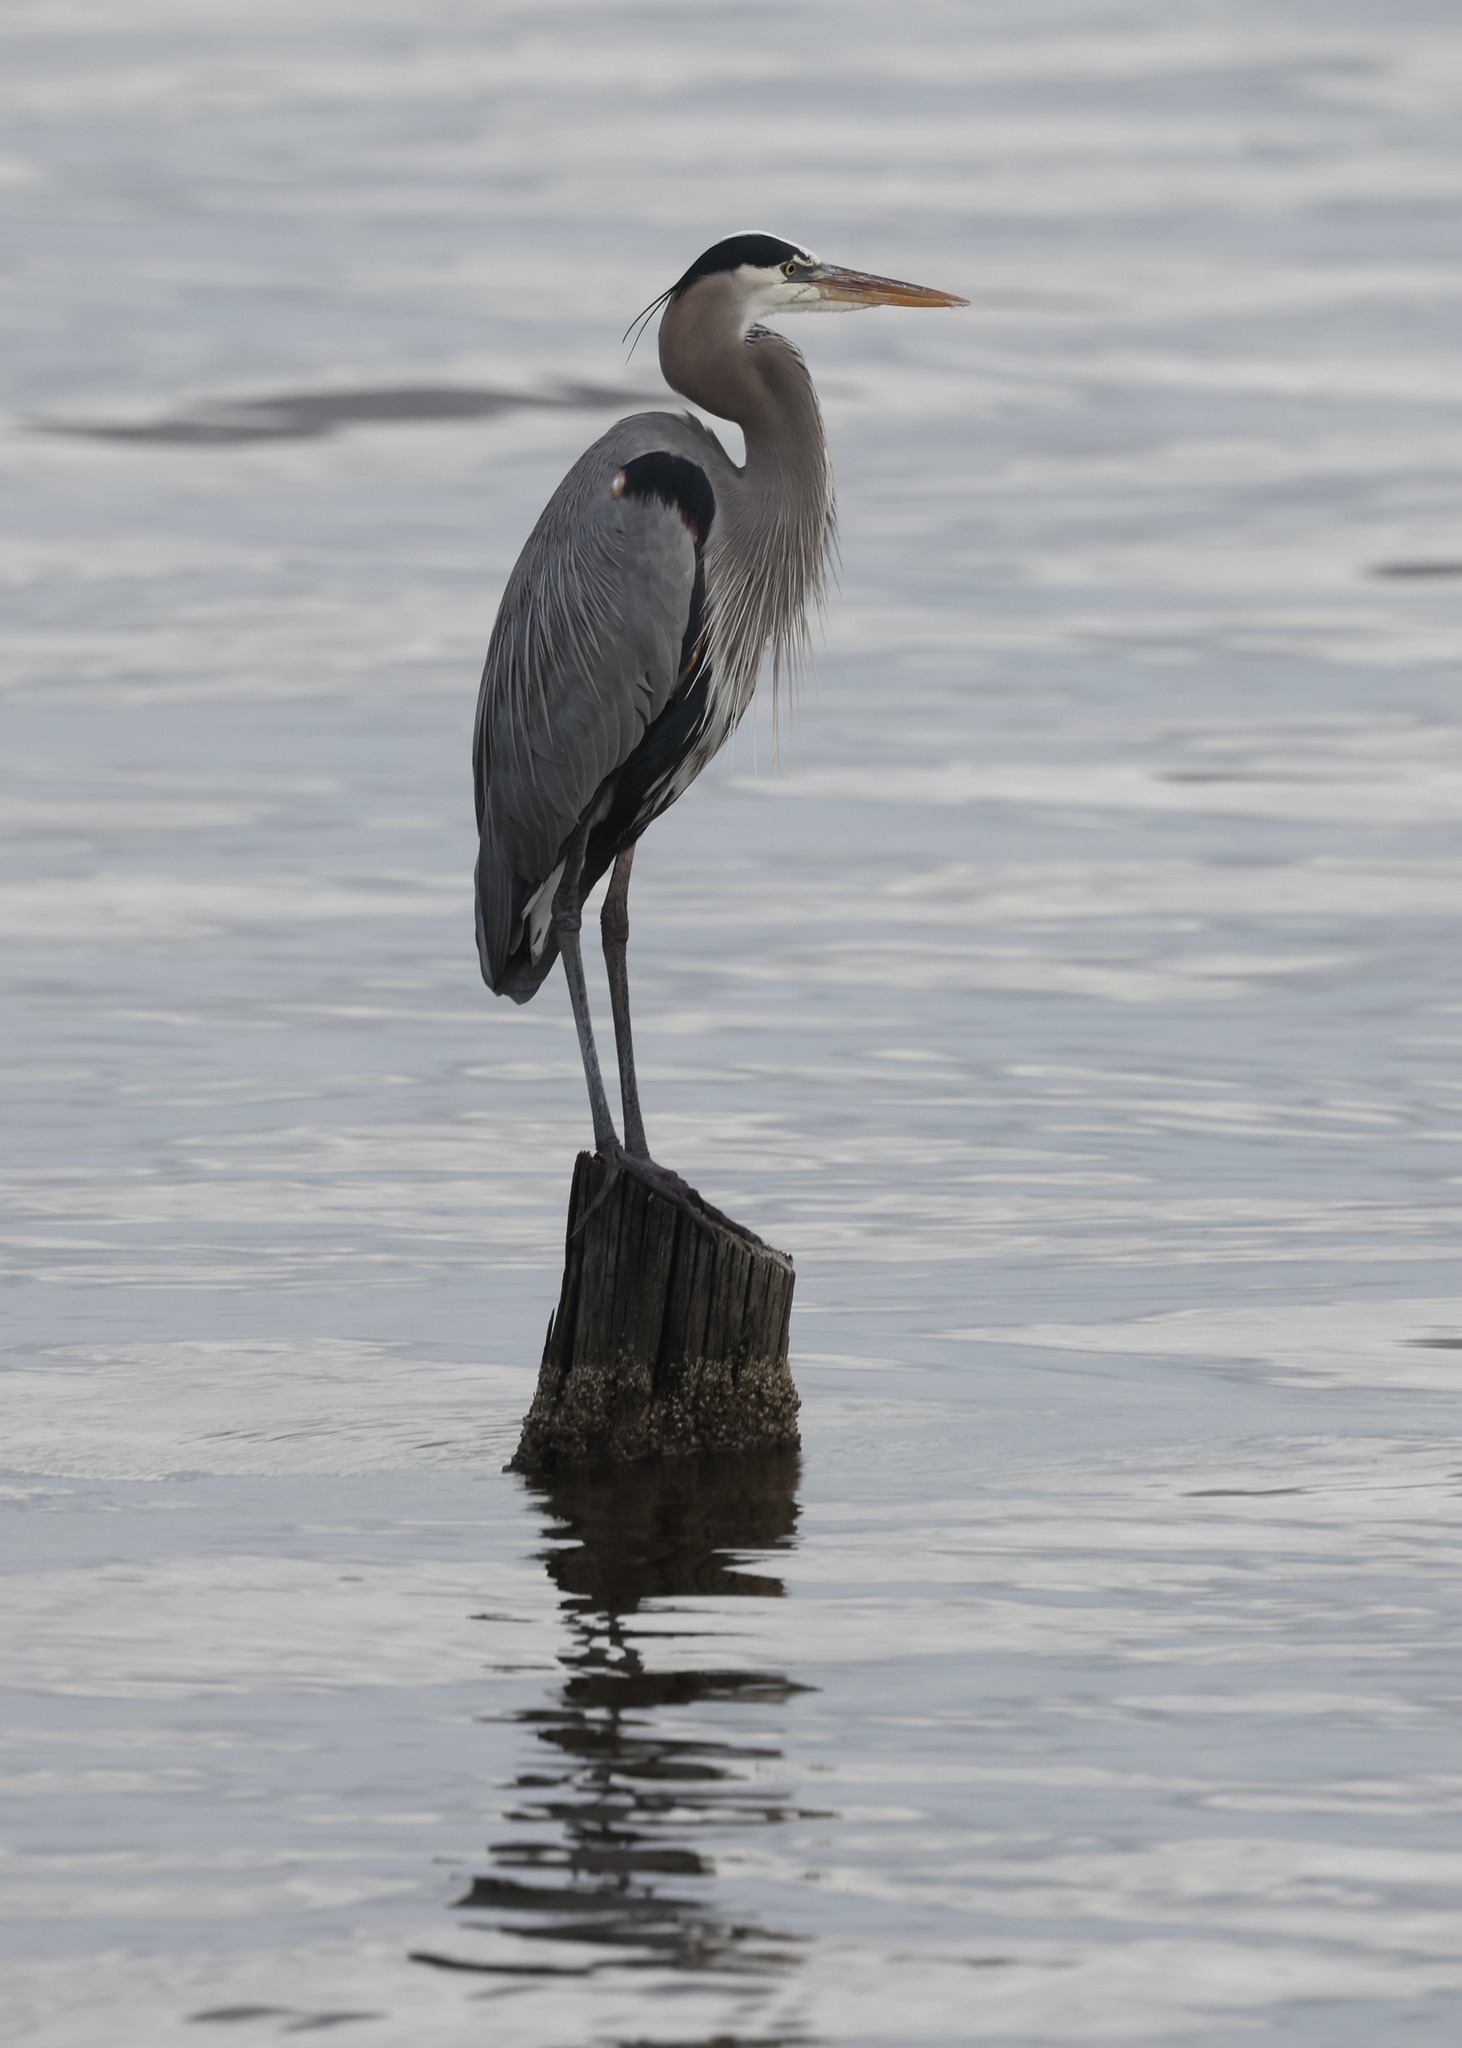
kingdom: Animalia
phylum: Chordata
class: Aves
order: Pelecaniformes
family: Ardeidae
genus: Ardea
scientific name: Ardea herodias
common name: Great blue heron
